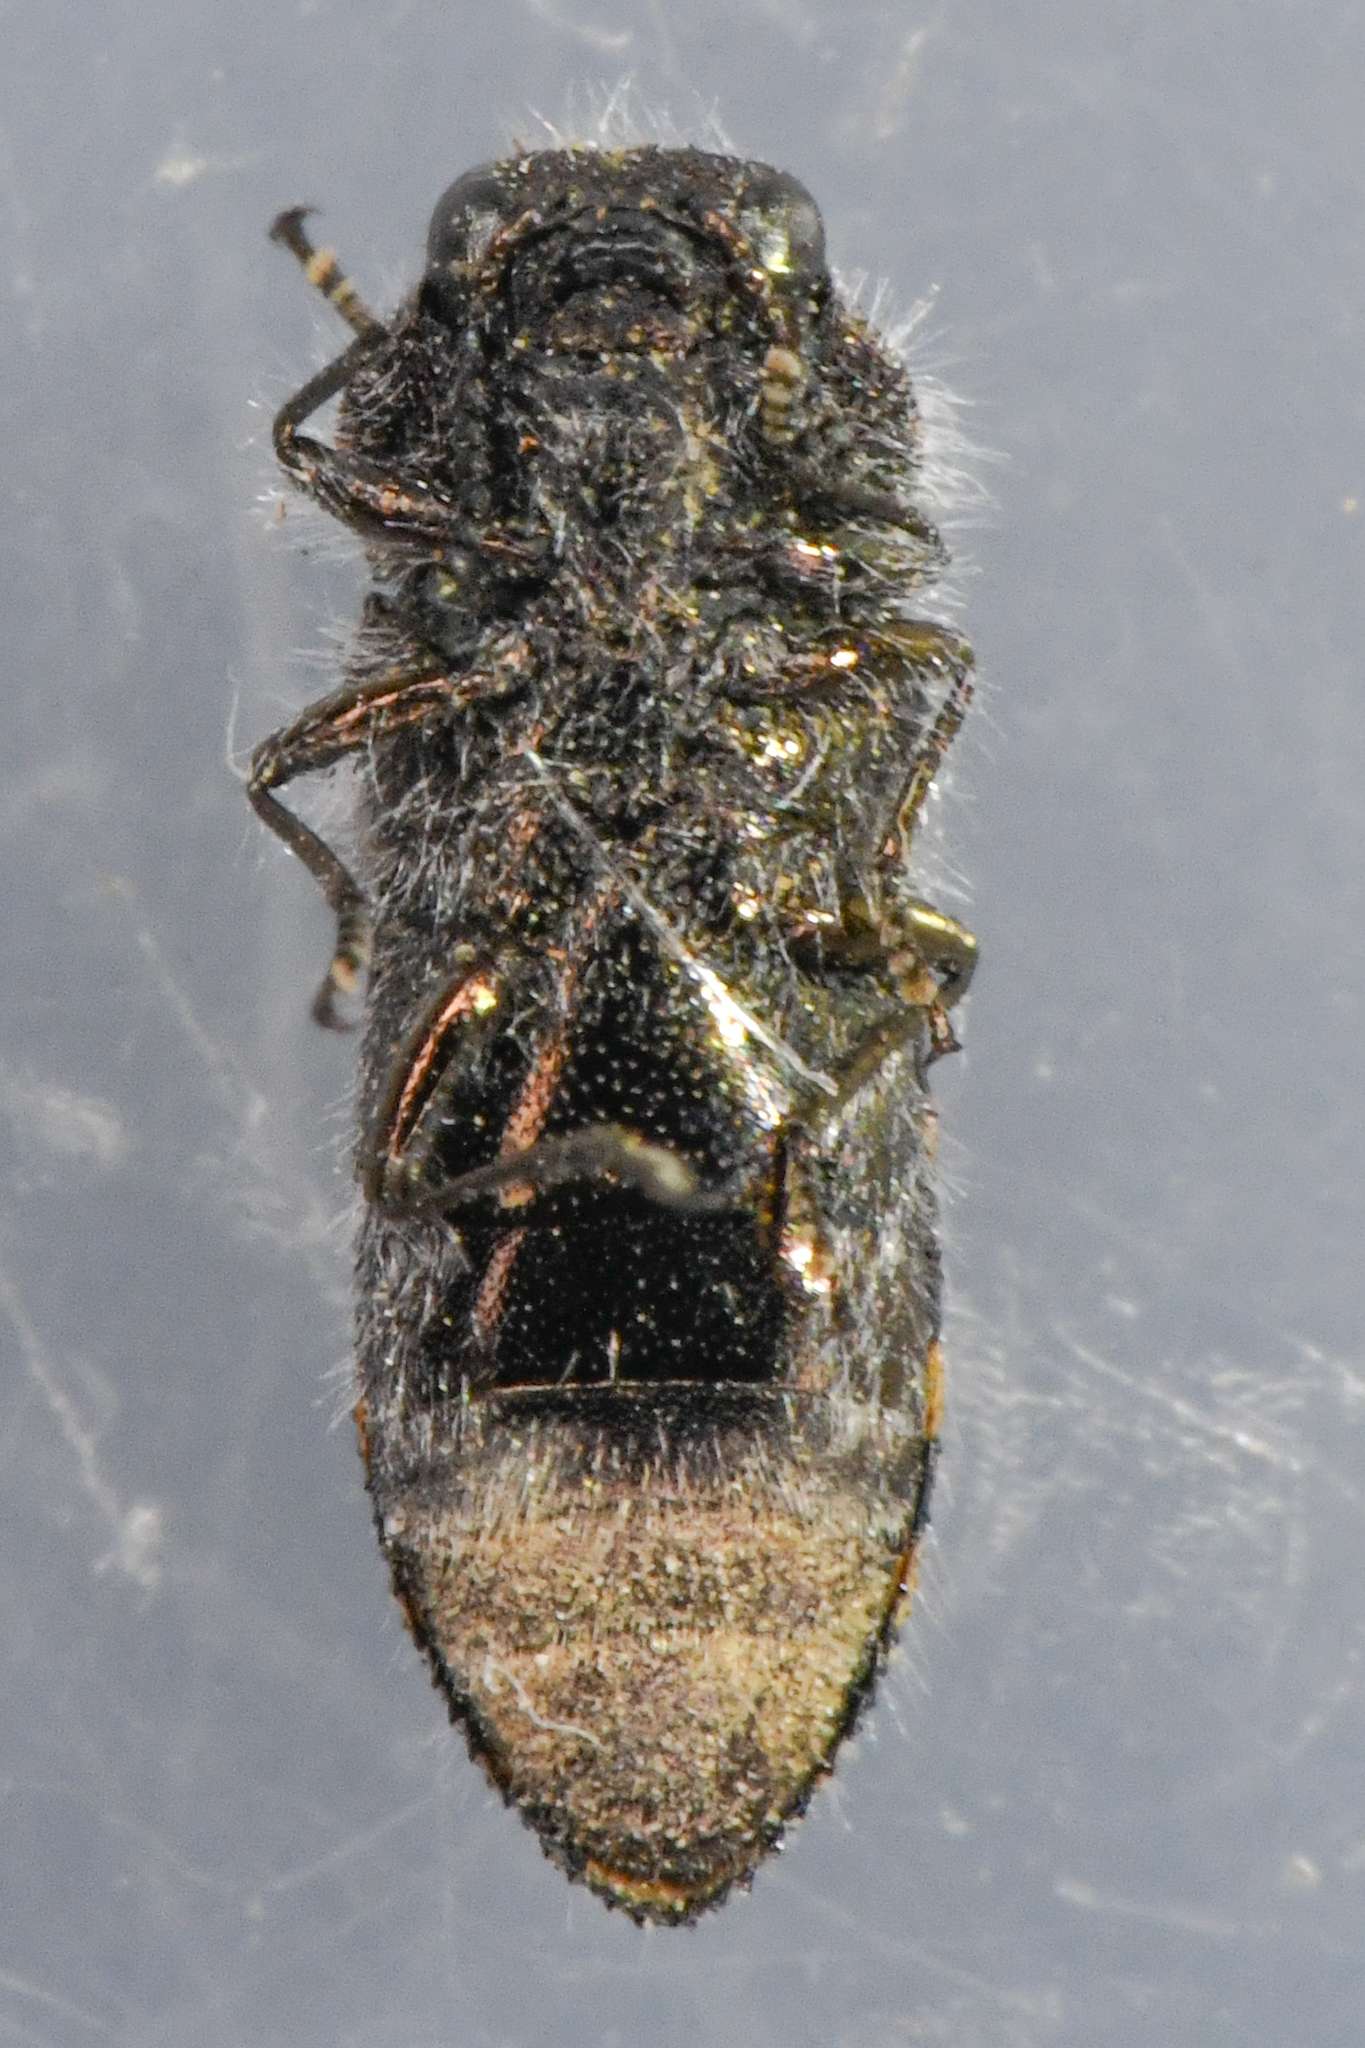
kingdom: Animalia
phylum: Arthropoda
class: Insecta
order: Coleoptera
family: Buprestidae
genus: Acmaeoderopsis
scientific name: Acmaeoderopsis guttifera
